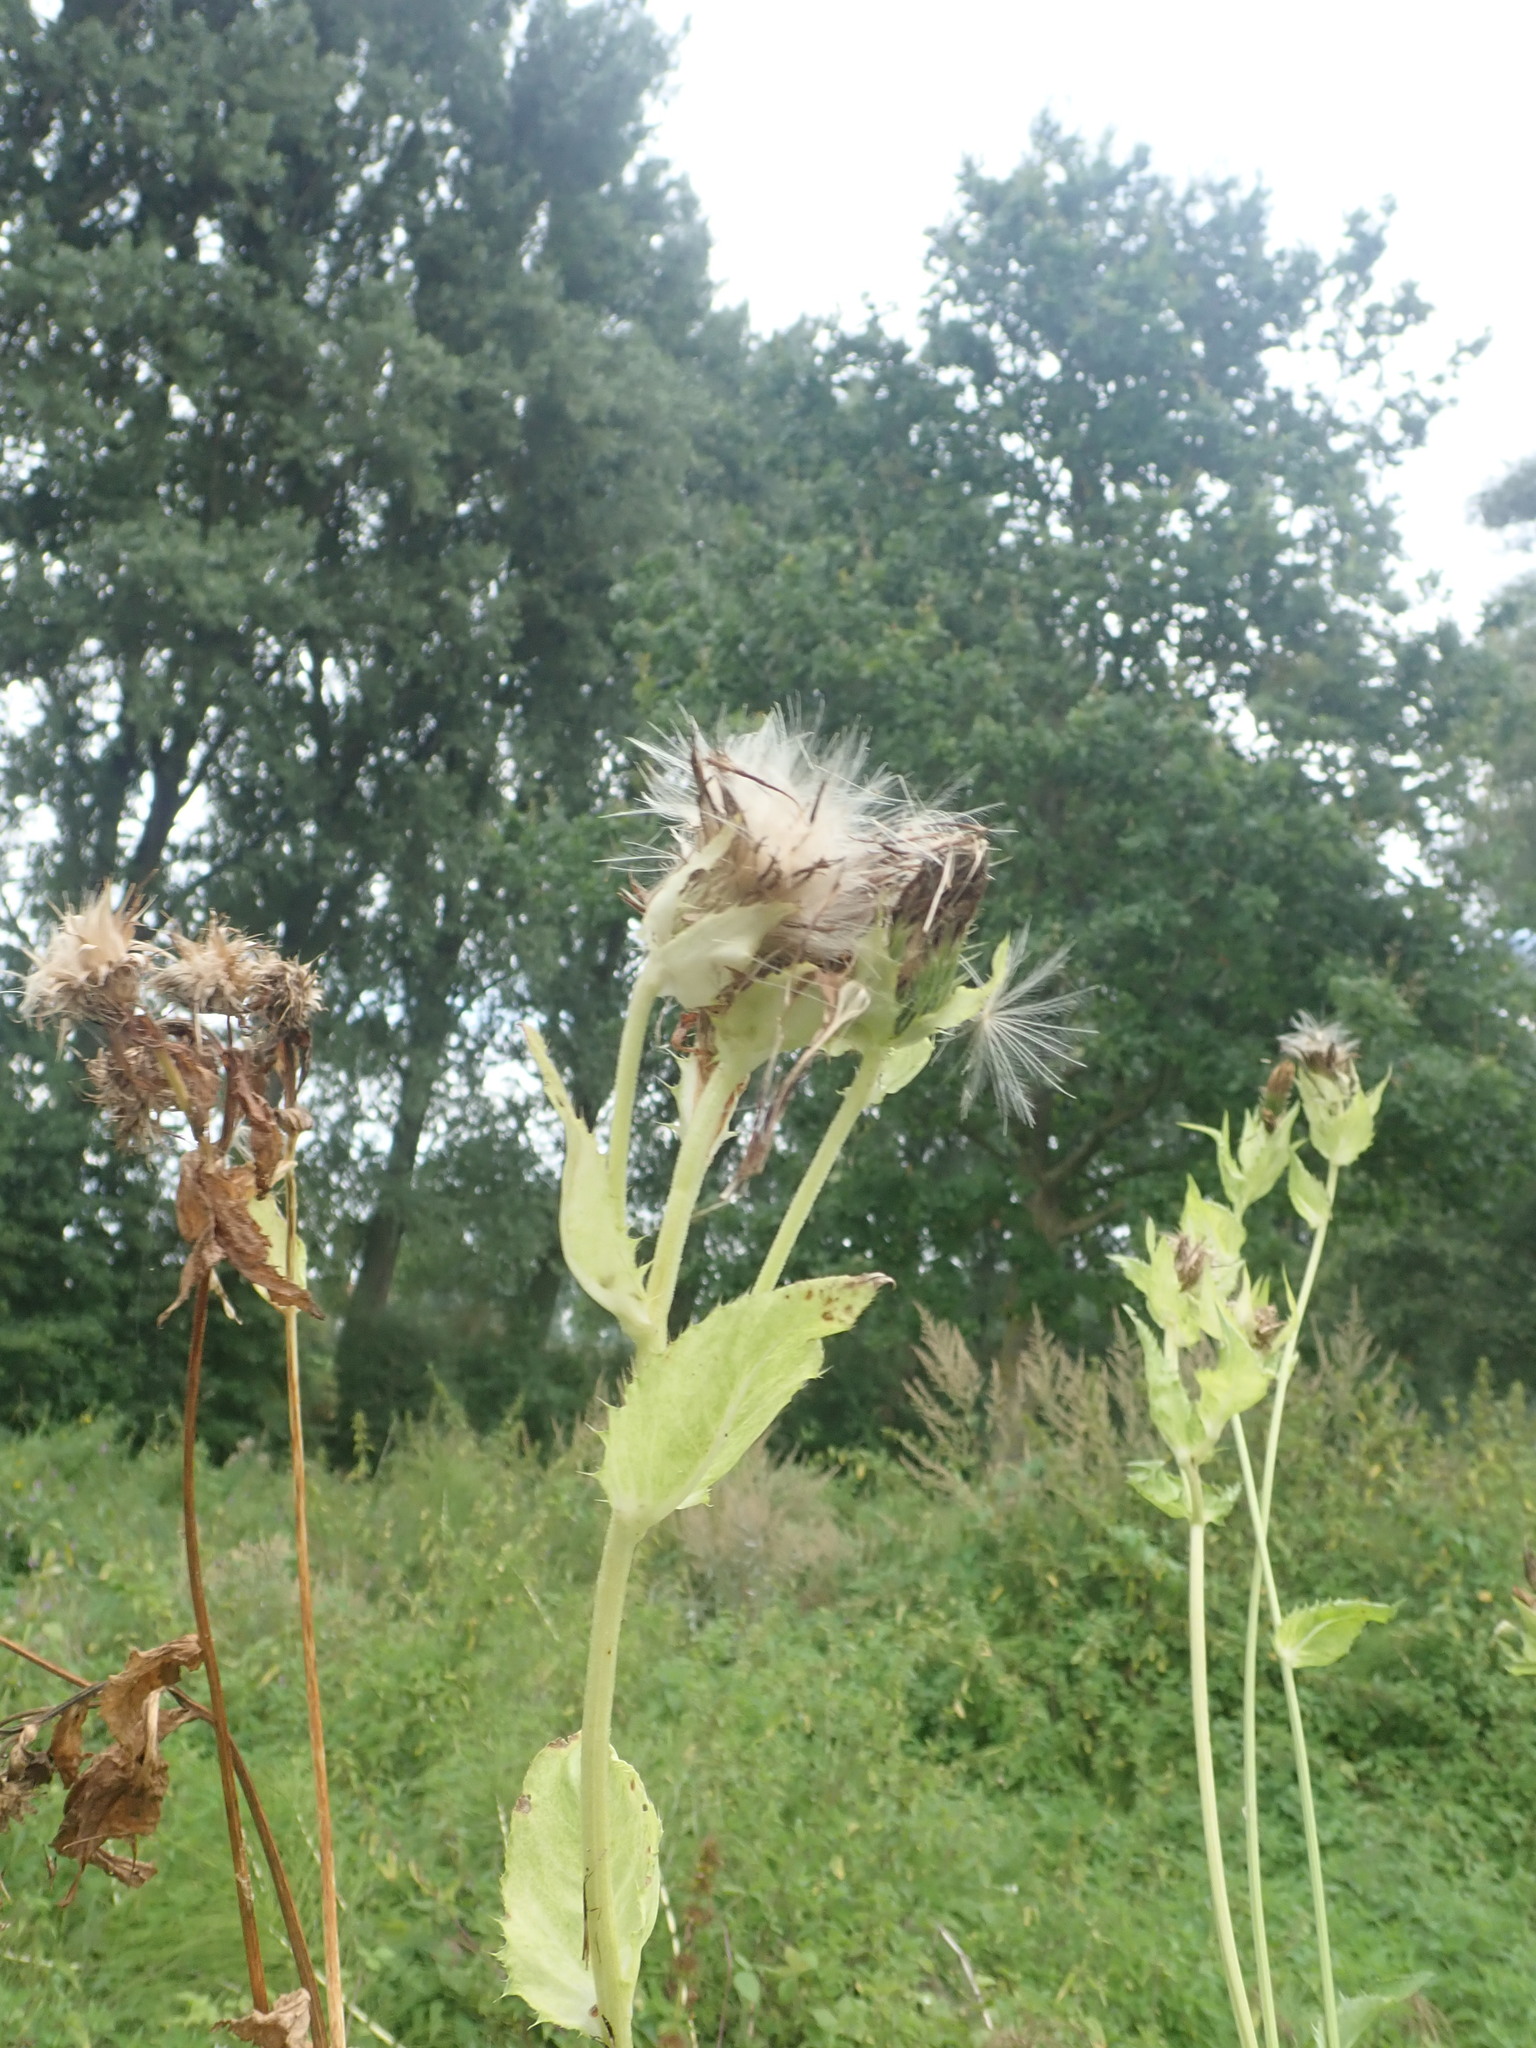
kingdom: Plantae
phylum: Tracheophyta
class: Magnoliopsida
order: Asterales
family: Asteraceae
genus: Cirsium
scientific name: Cirsium oleraceum
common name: Cabbage thistle
